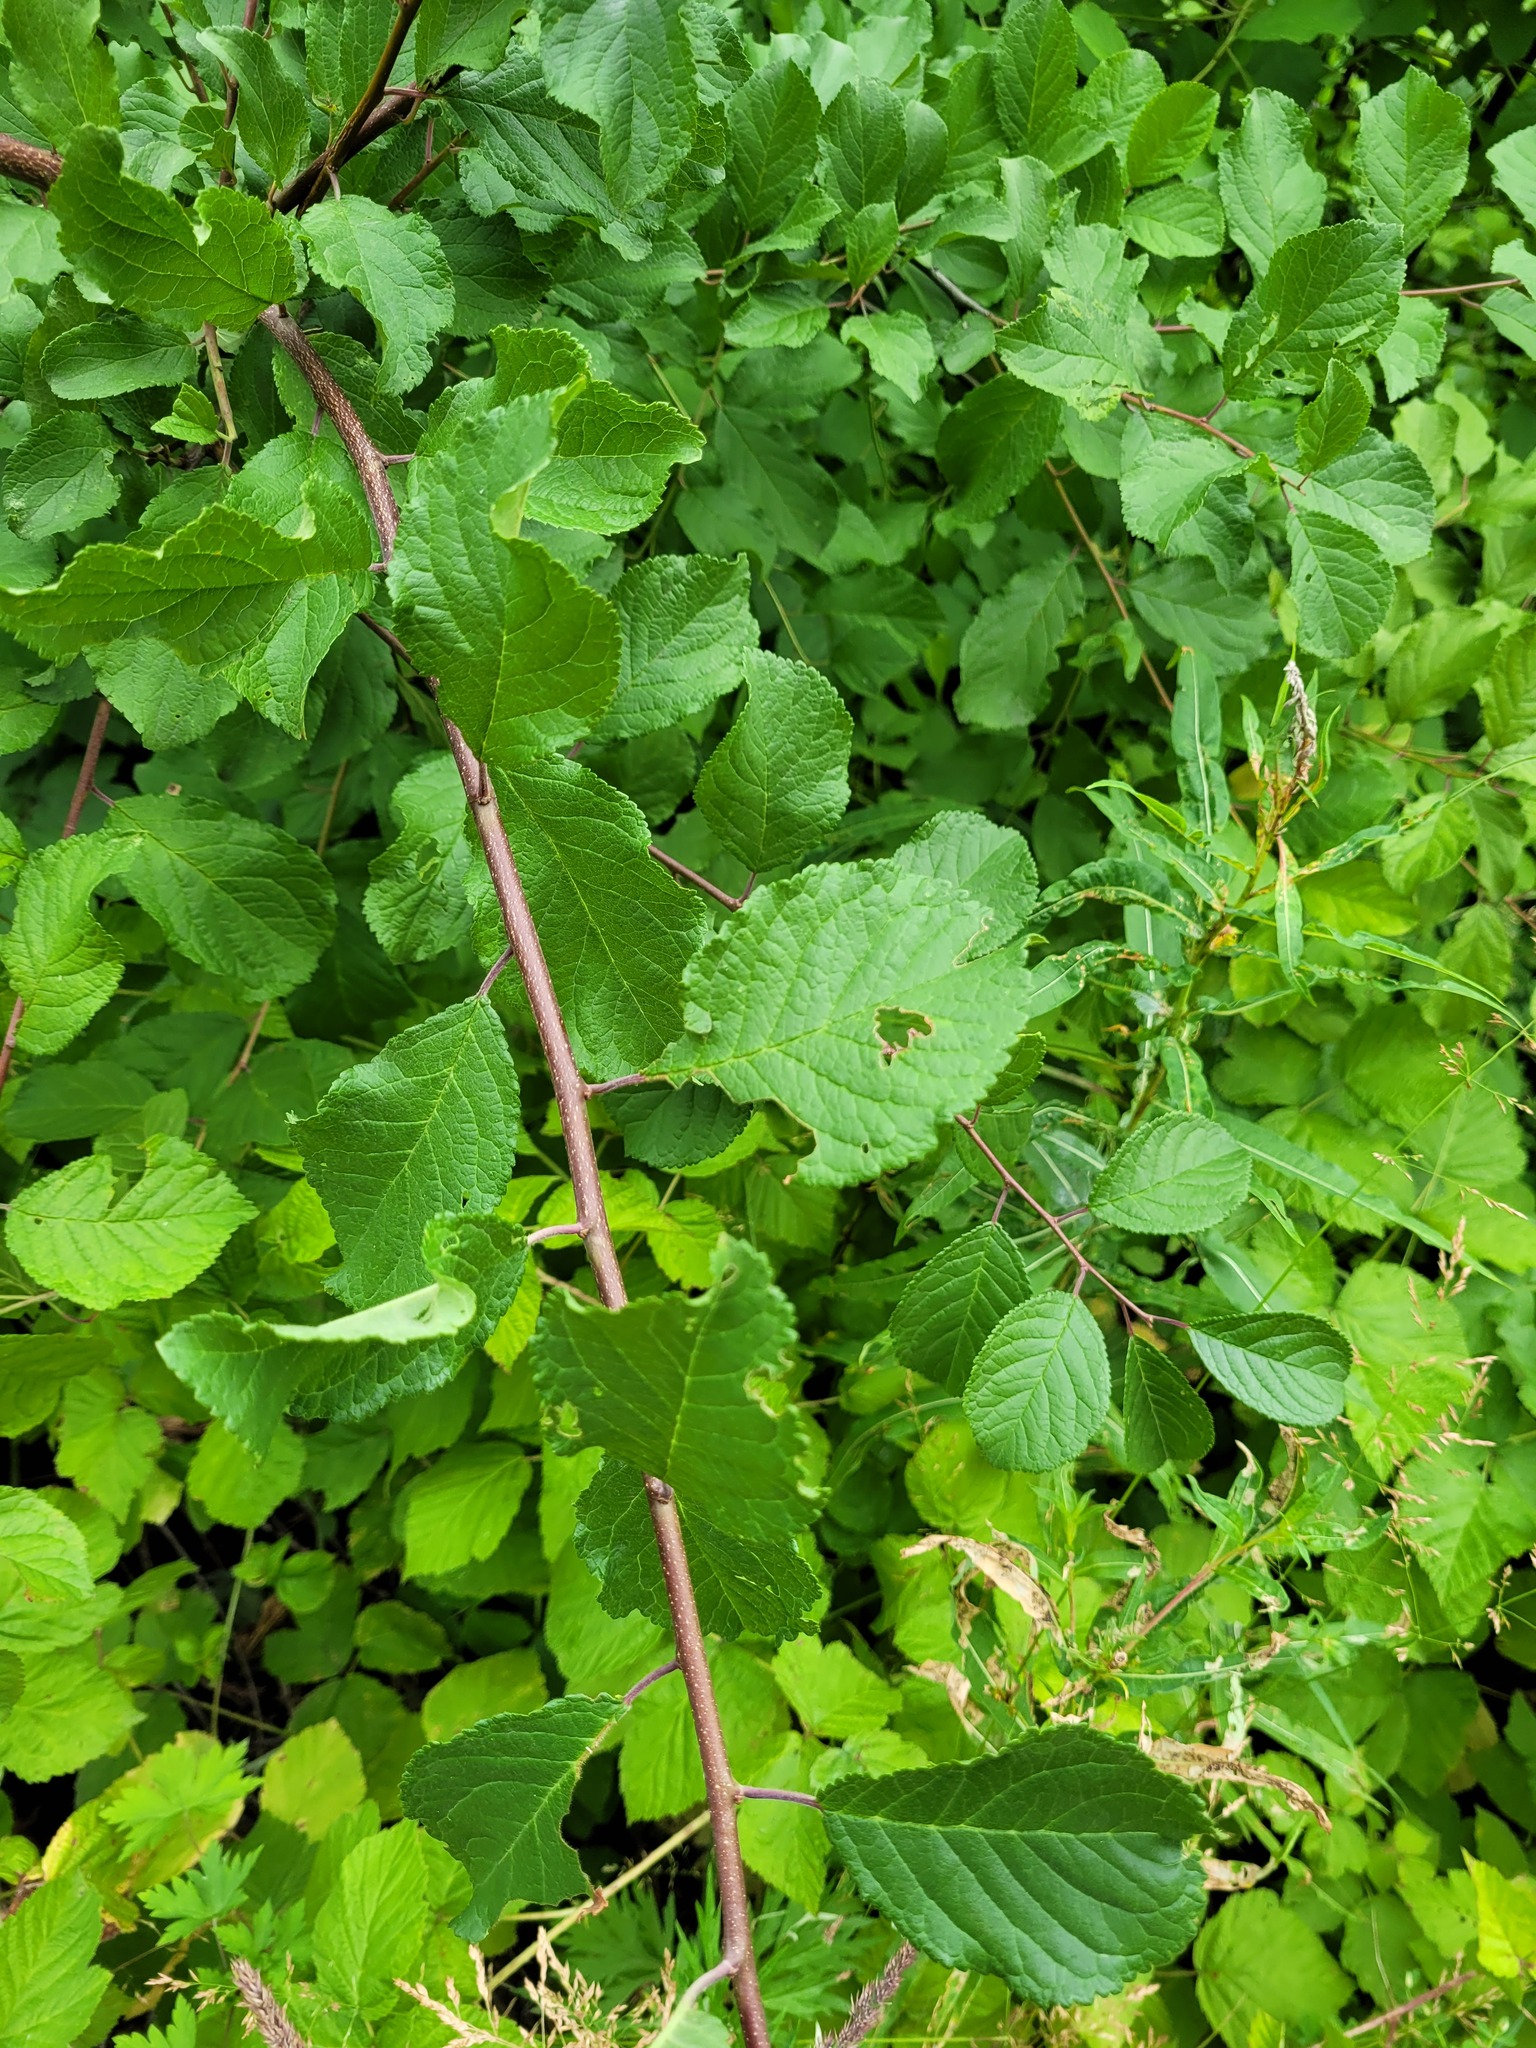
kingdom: Plantae
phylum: Tracheophyta
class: Magnoliopsida
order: Rosales
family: Rosaceae
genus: Prunus
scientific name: Prunus spinosa
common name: Blackthorn
